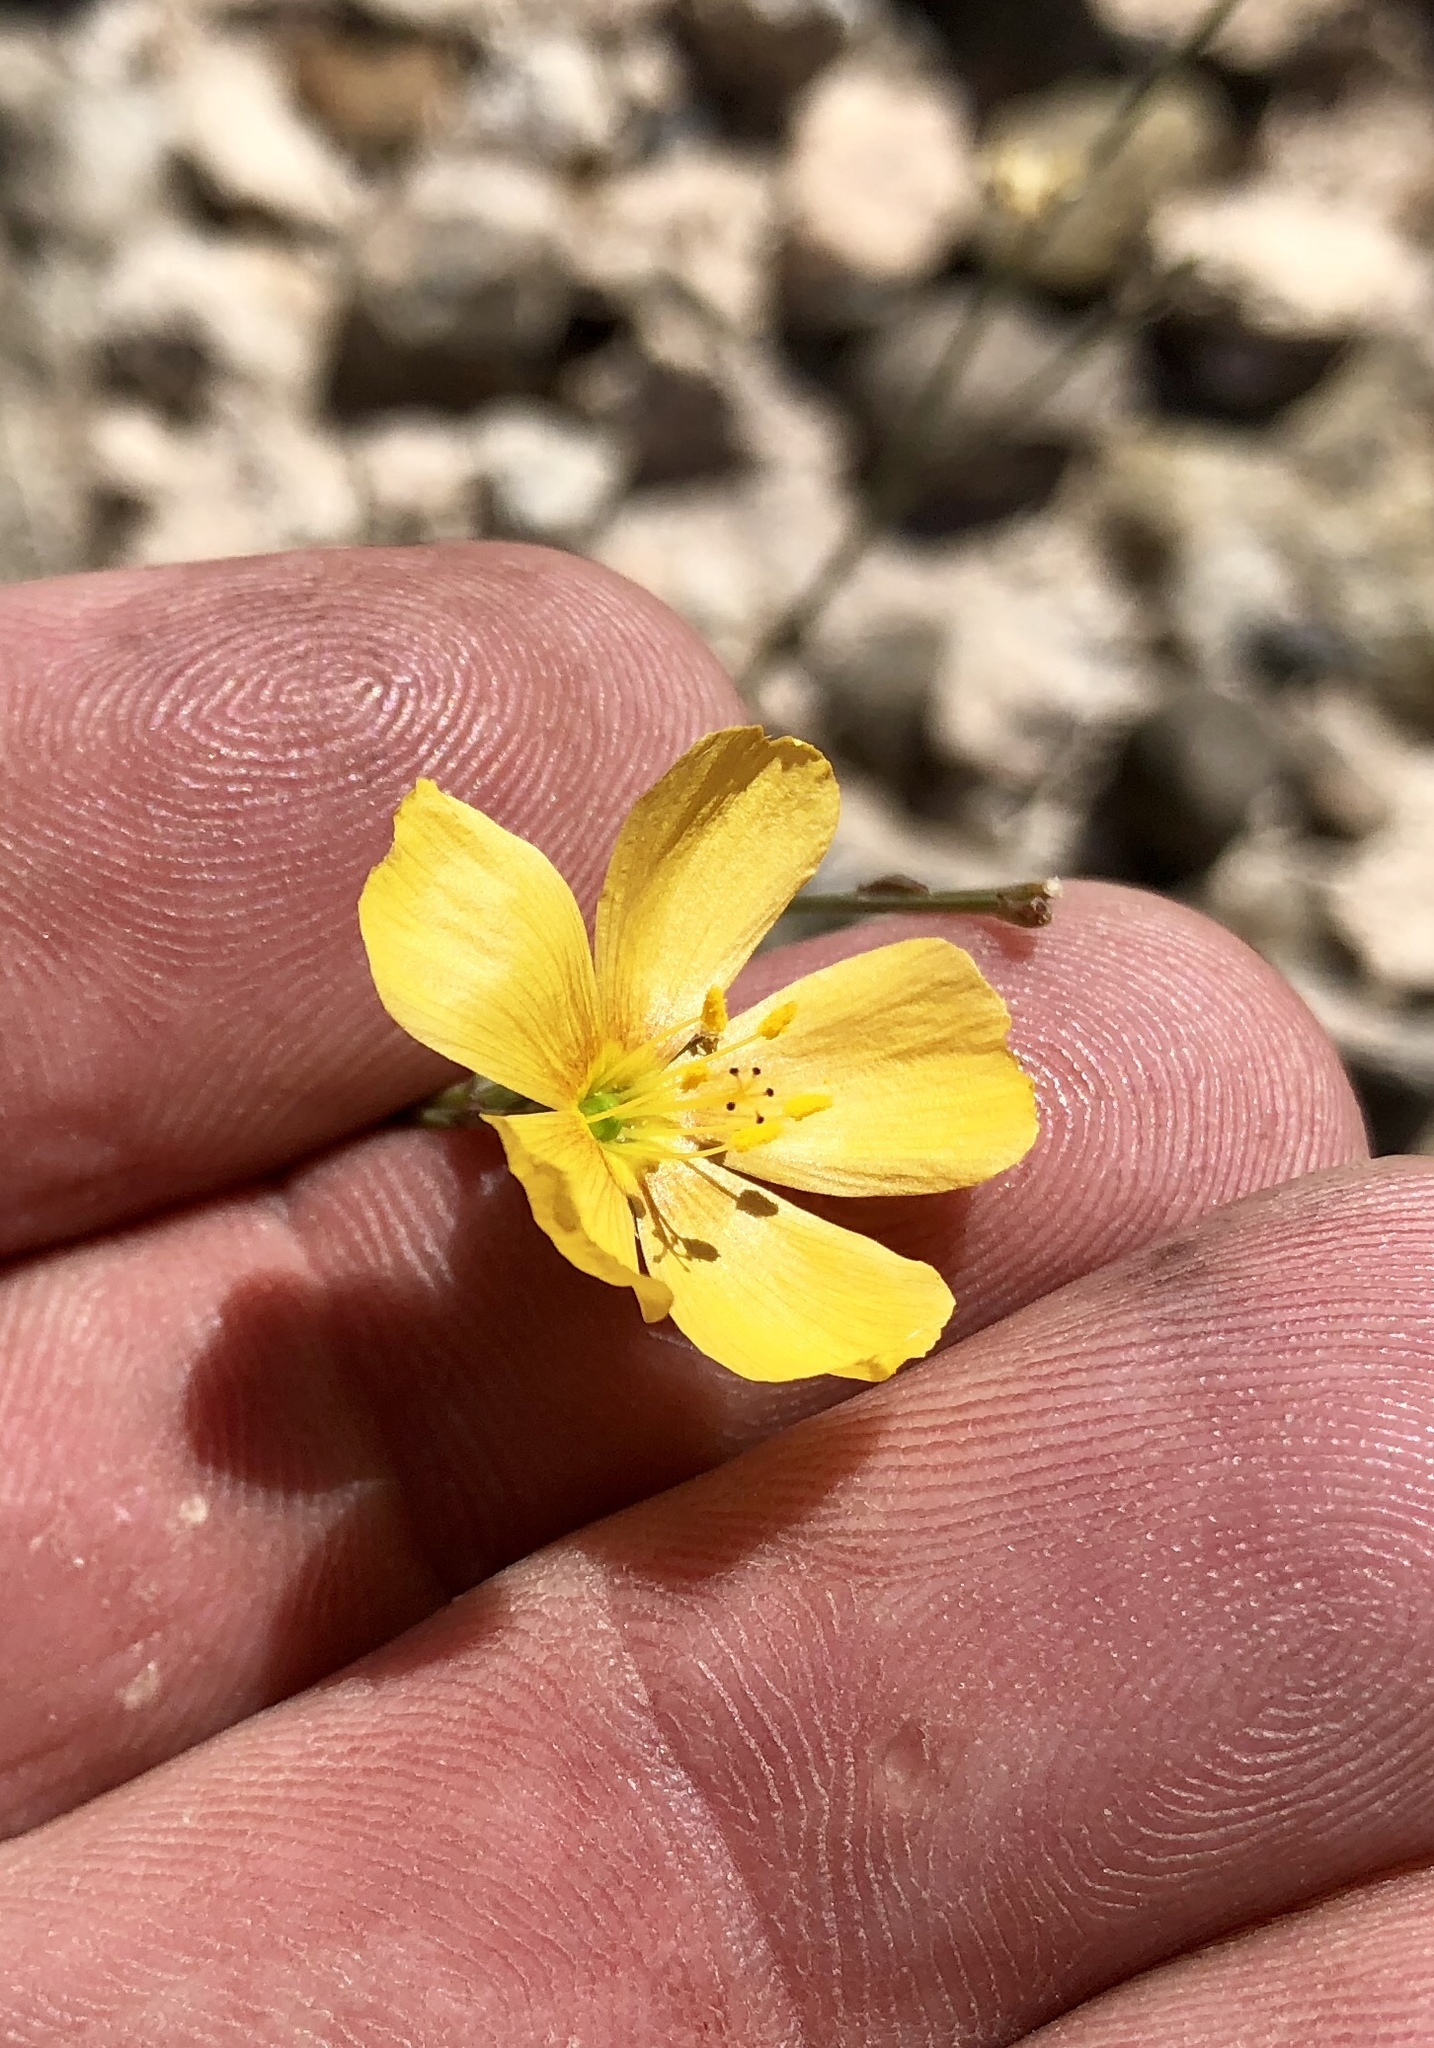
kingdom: Plantae
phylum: Tracheophyta
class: Magnoliopsida
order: Malpighiales
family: Linaceae
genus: Linum
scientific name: Linum berlandieri
